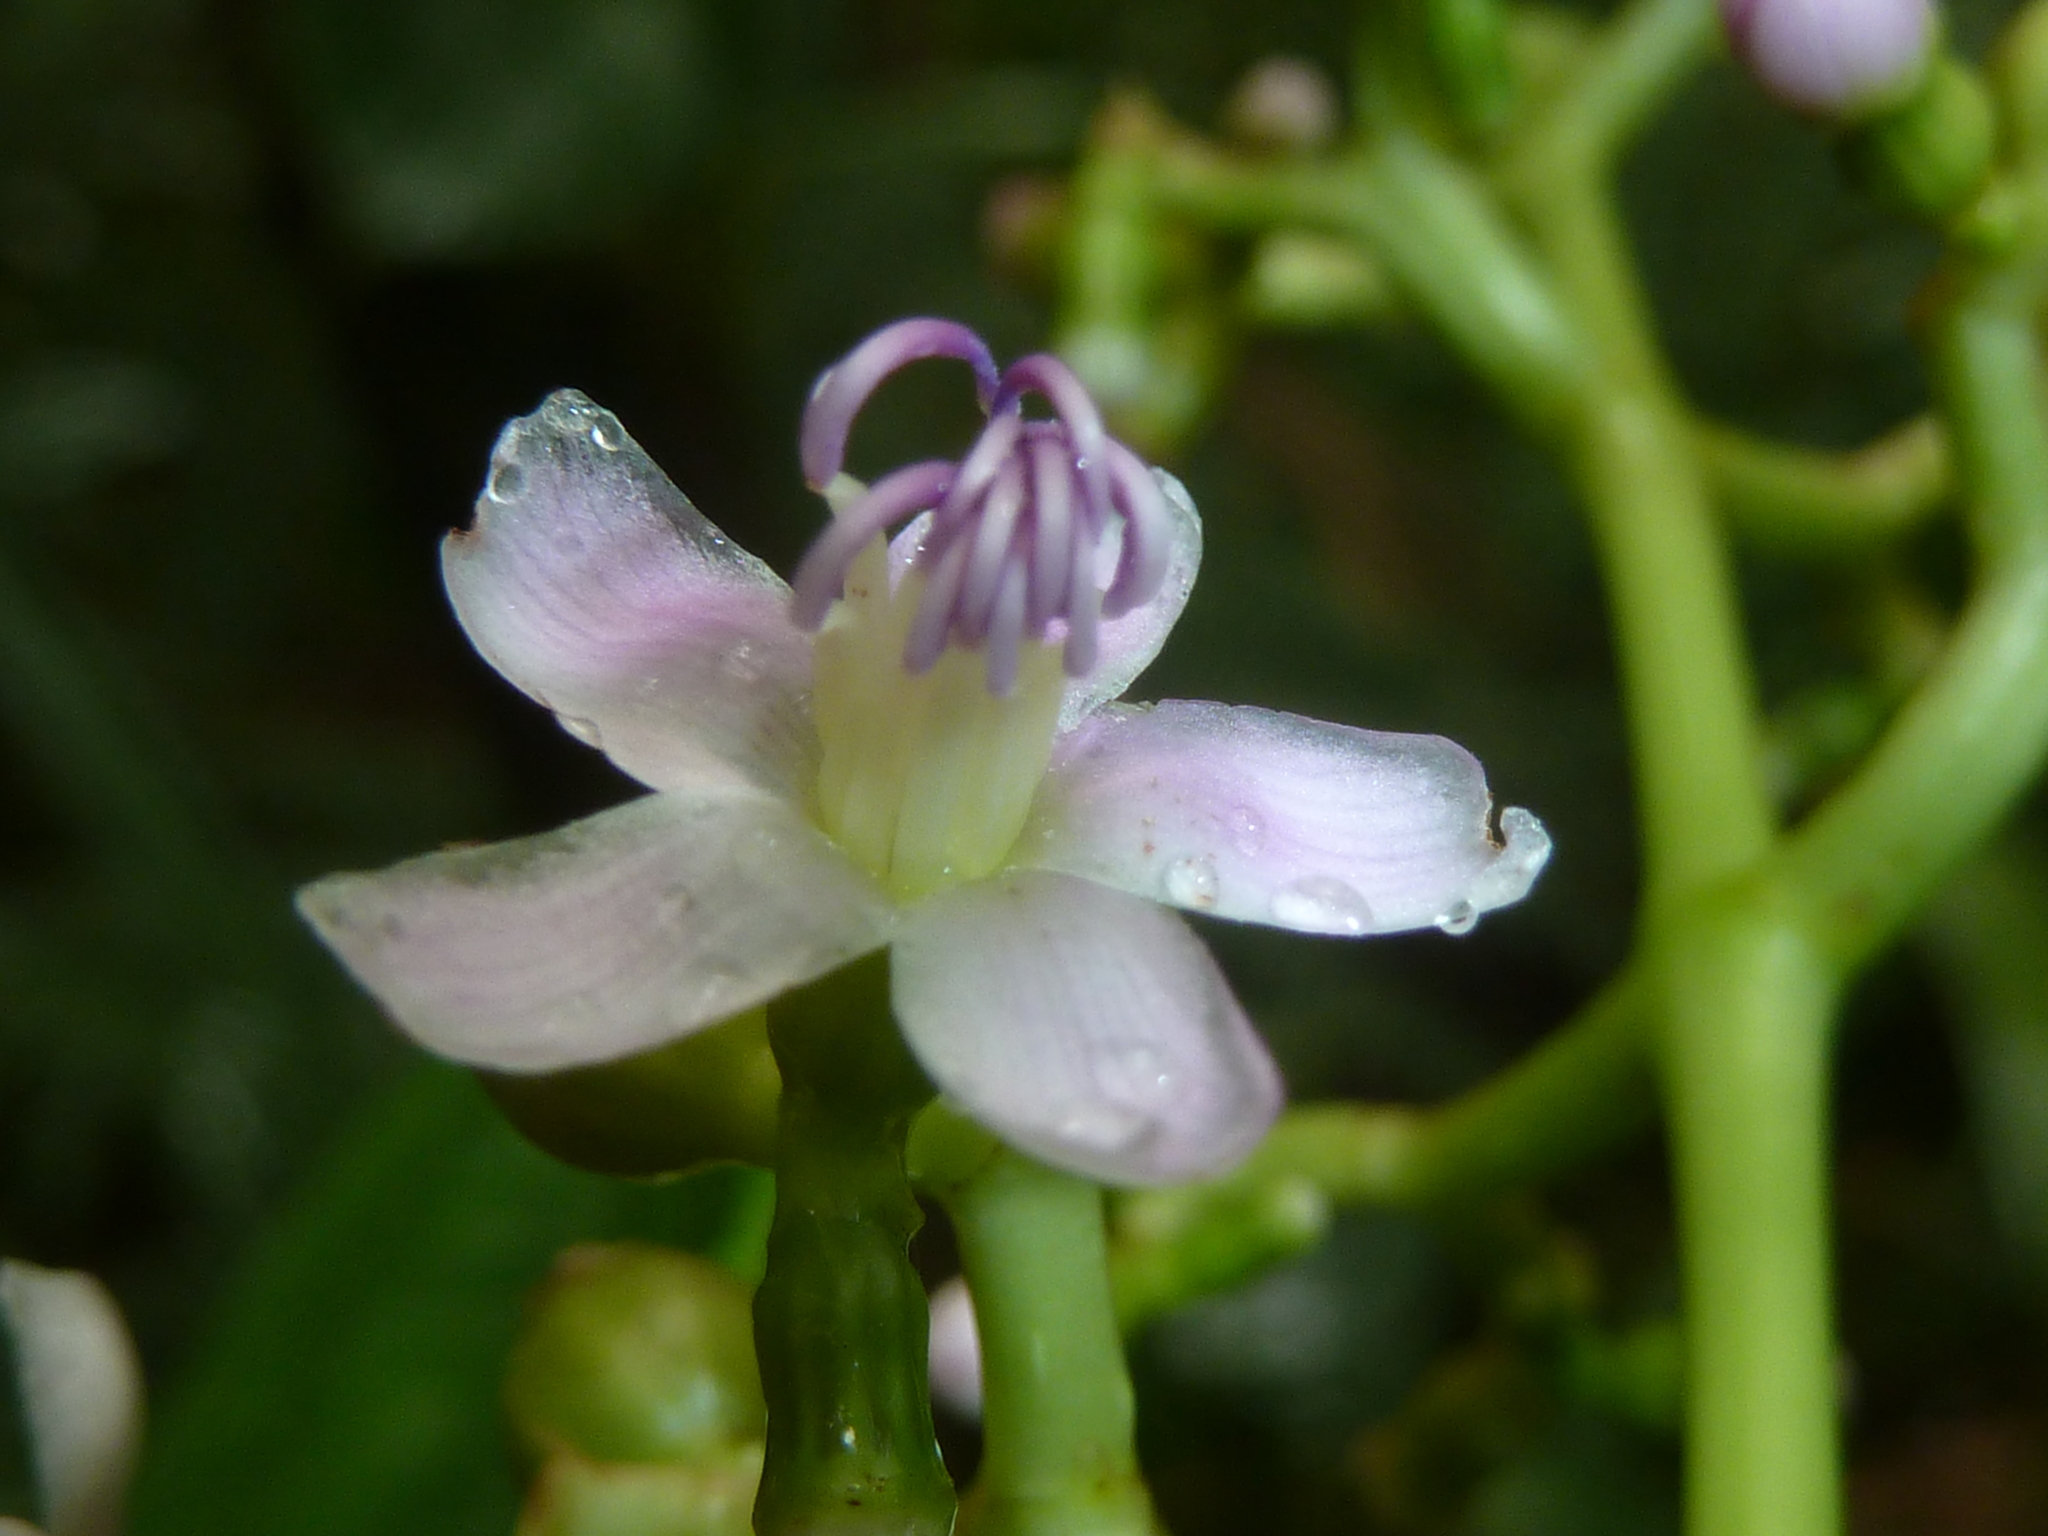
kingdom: Plantae
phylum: Tracheophyta
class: Magnoliopsida
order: Myrtales
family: Melastomataceae
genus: Miconia
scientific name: Miconia aponeura
